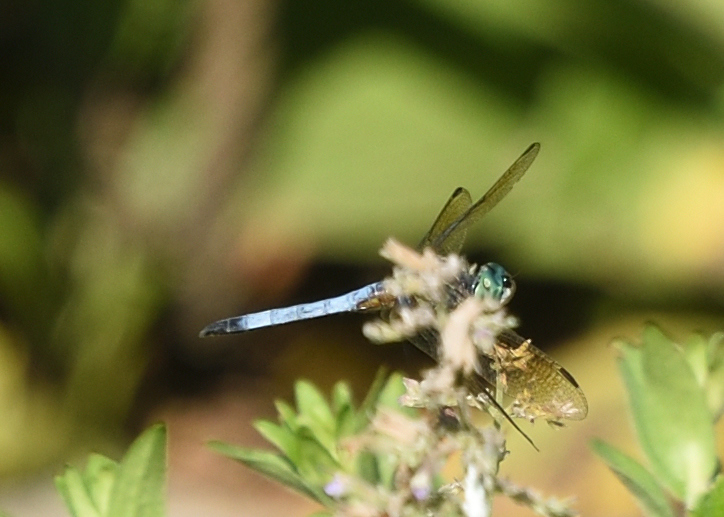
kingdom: Animalia
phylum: Arthropoda
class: Insecta
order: Odonata
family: Libellulidae
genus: Pachydiplax
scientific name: Pachydiplax longipennis
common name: Blue dasher
